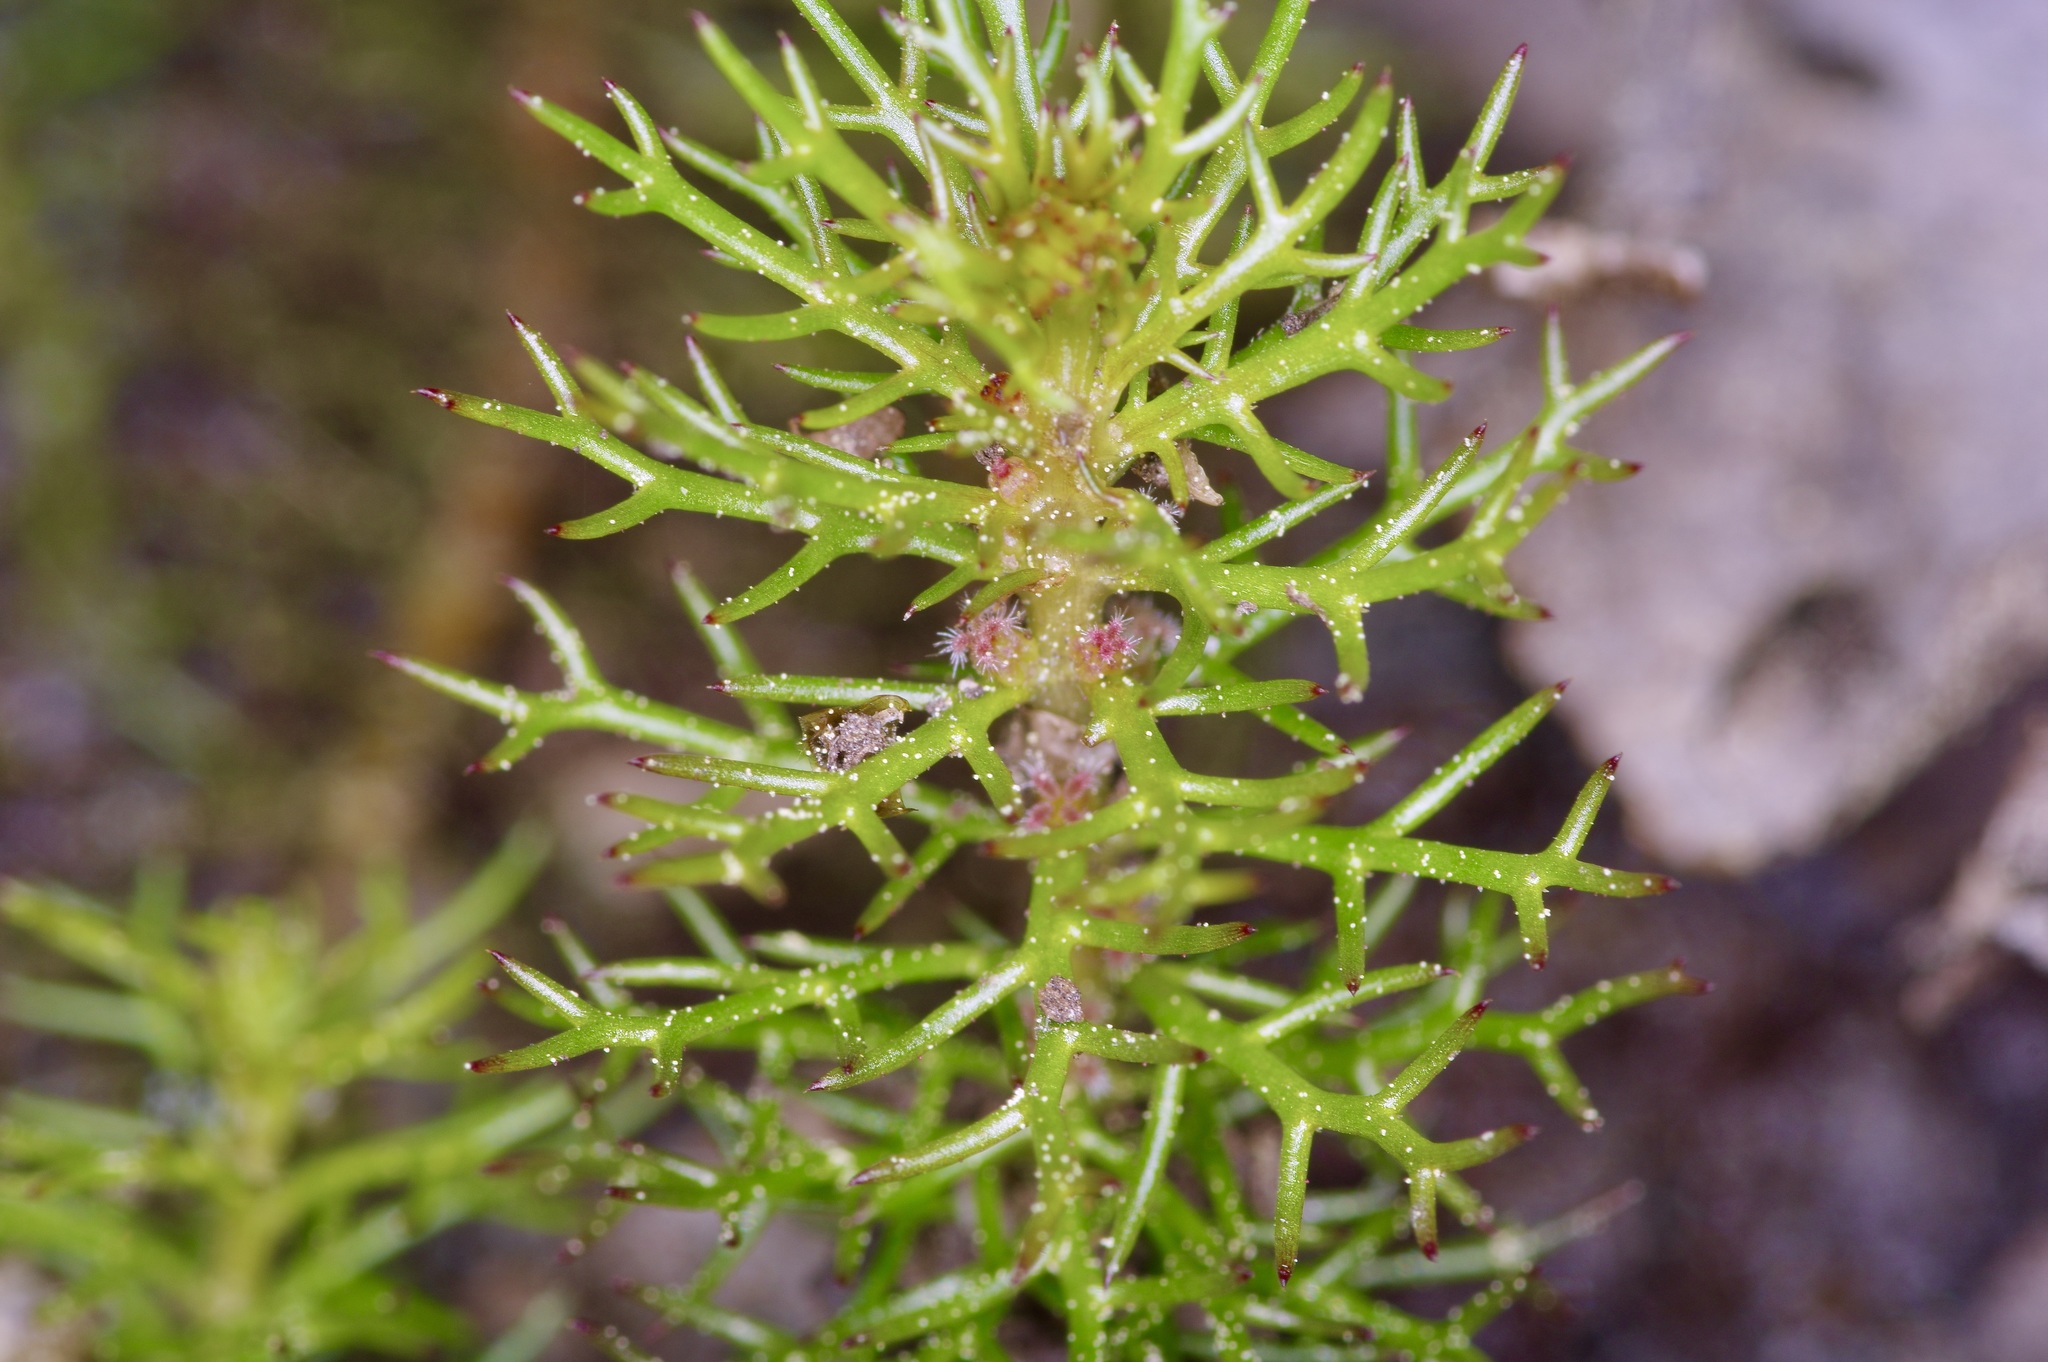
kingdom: Plantae
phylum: Tracheophyta
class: Magnoliopsida
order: Saxifragales
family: Haloragaceae
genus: Myriophyllum
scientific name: Myriophyllum pinnatum
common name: Cut-leaved water-milfoil
